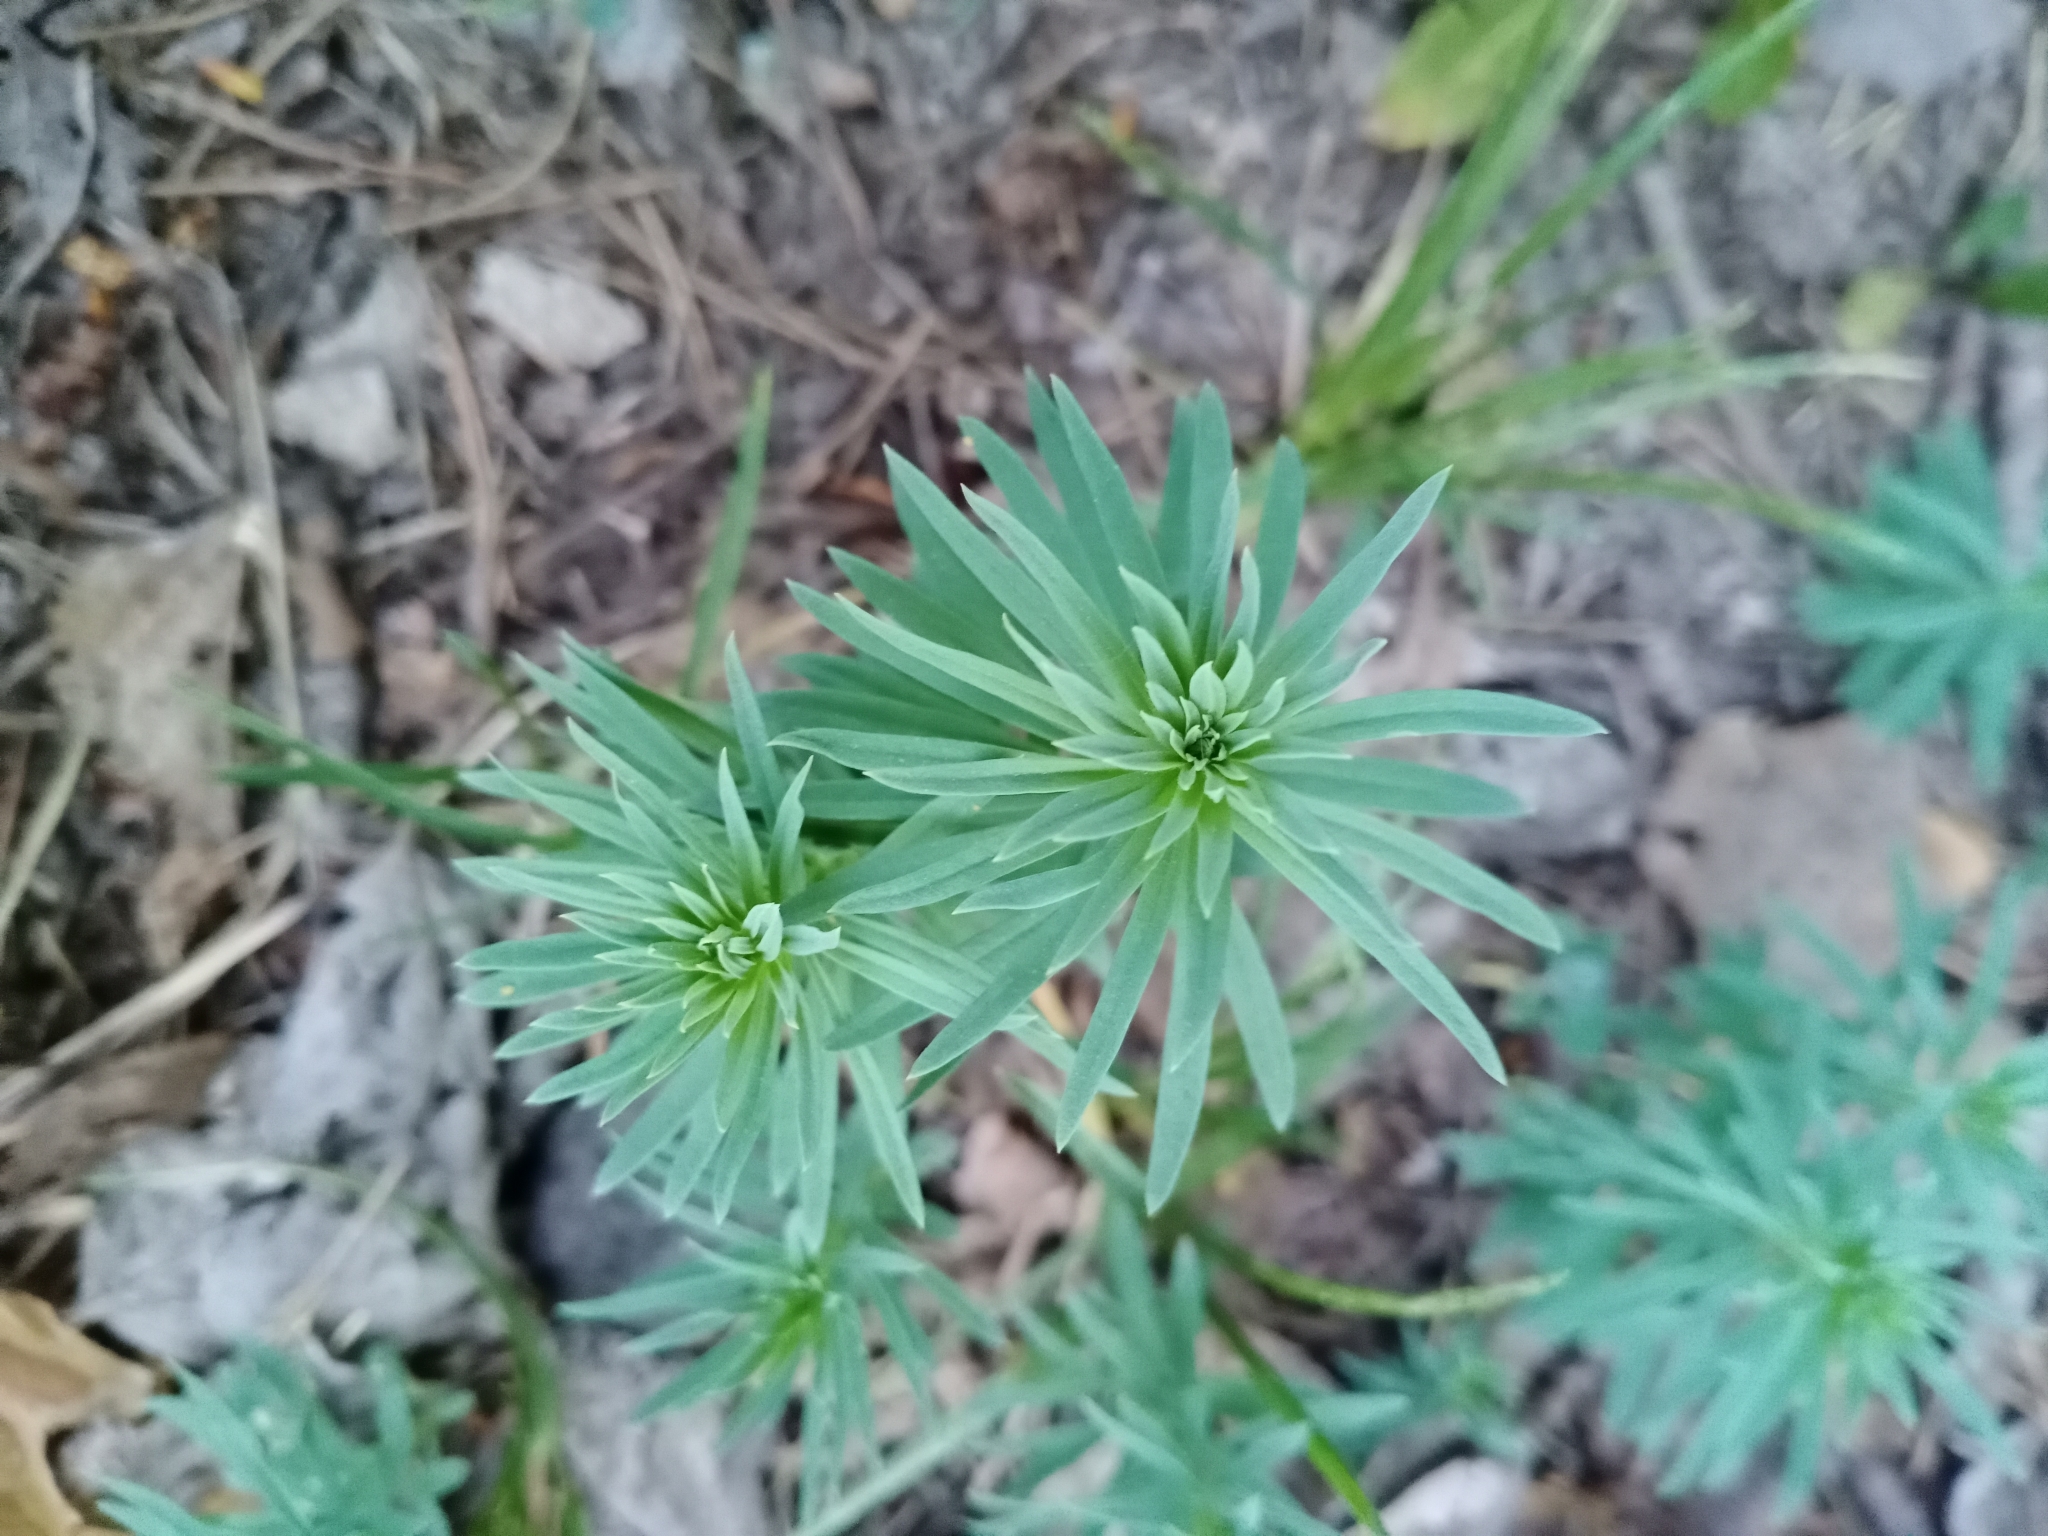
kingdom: Plantae
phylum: Tracheophyta
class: Magnoliopsida
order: Lamiales
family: Plantaginaceae
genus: Linaria
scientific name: Linaria vulgaris
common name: Butter and eggs
